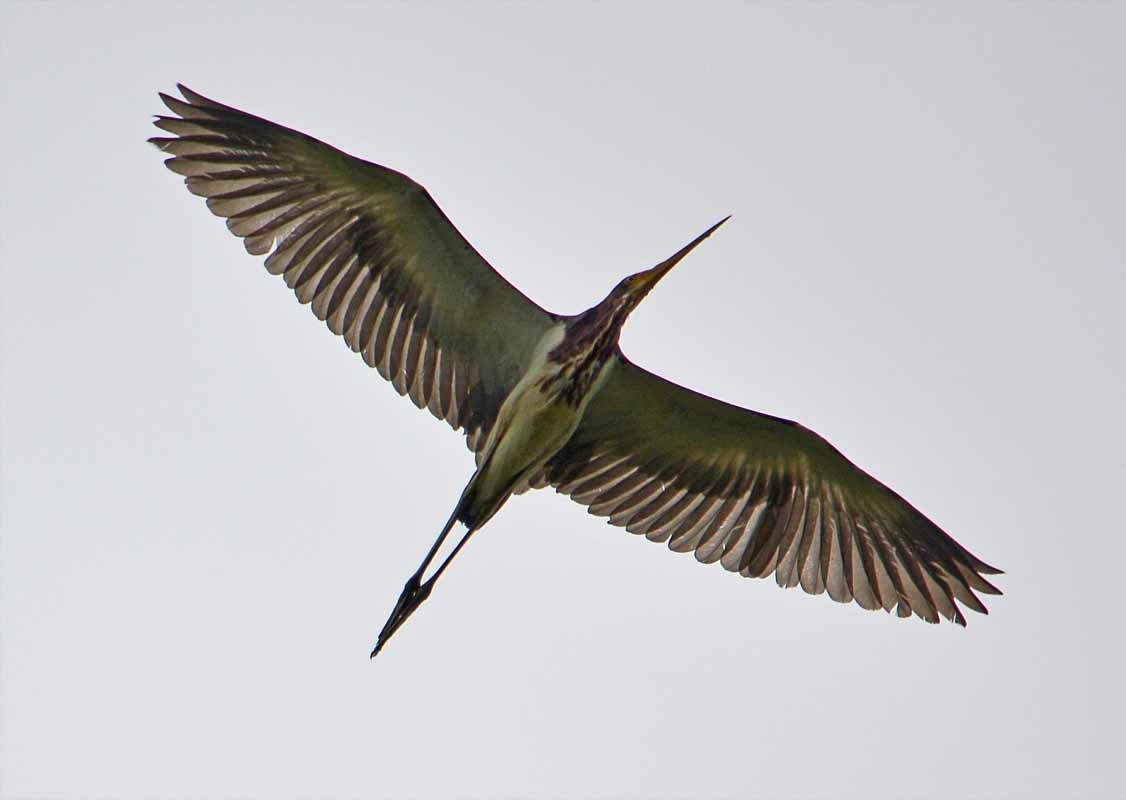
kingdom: Animalia
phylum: Chordata
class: Aves
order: Pelecaniformes
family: Ardeidae
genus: Egretta
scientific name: Egretta tricolor
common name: Tricolored heron
